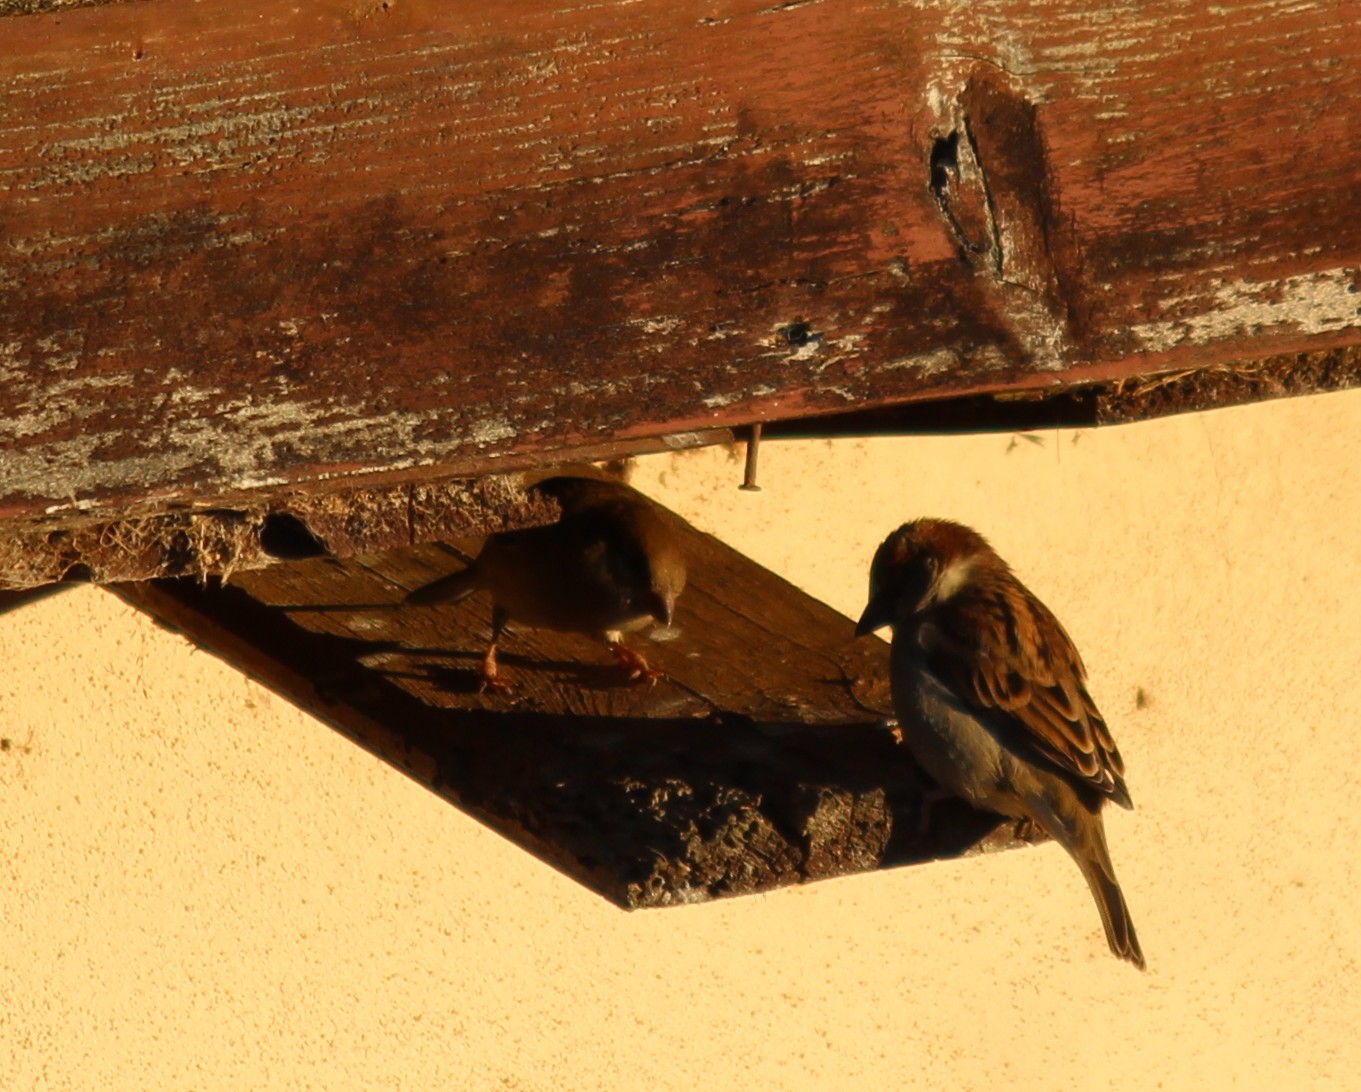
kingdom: Animalia
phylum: Chordata
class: Aves
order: Passeriformes
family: Passeridae
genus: Passer
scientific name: Passer domesticus
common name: House sparrow
